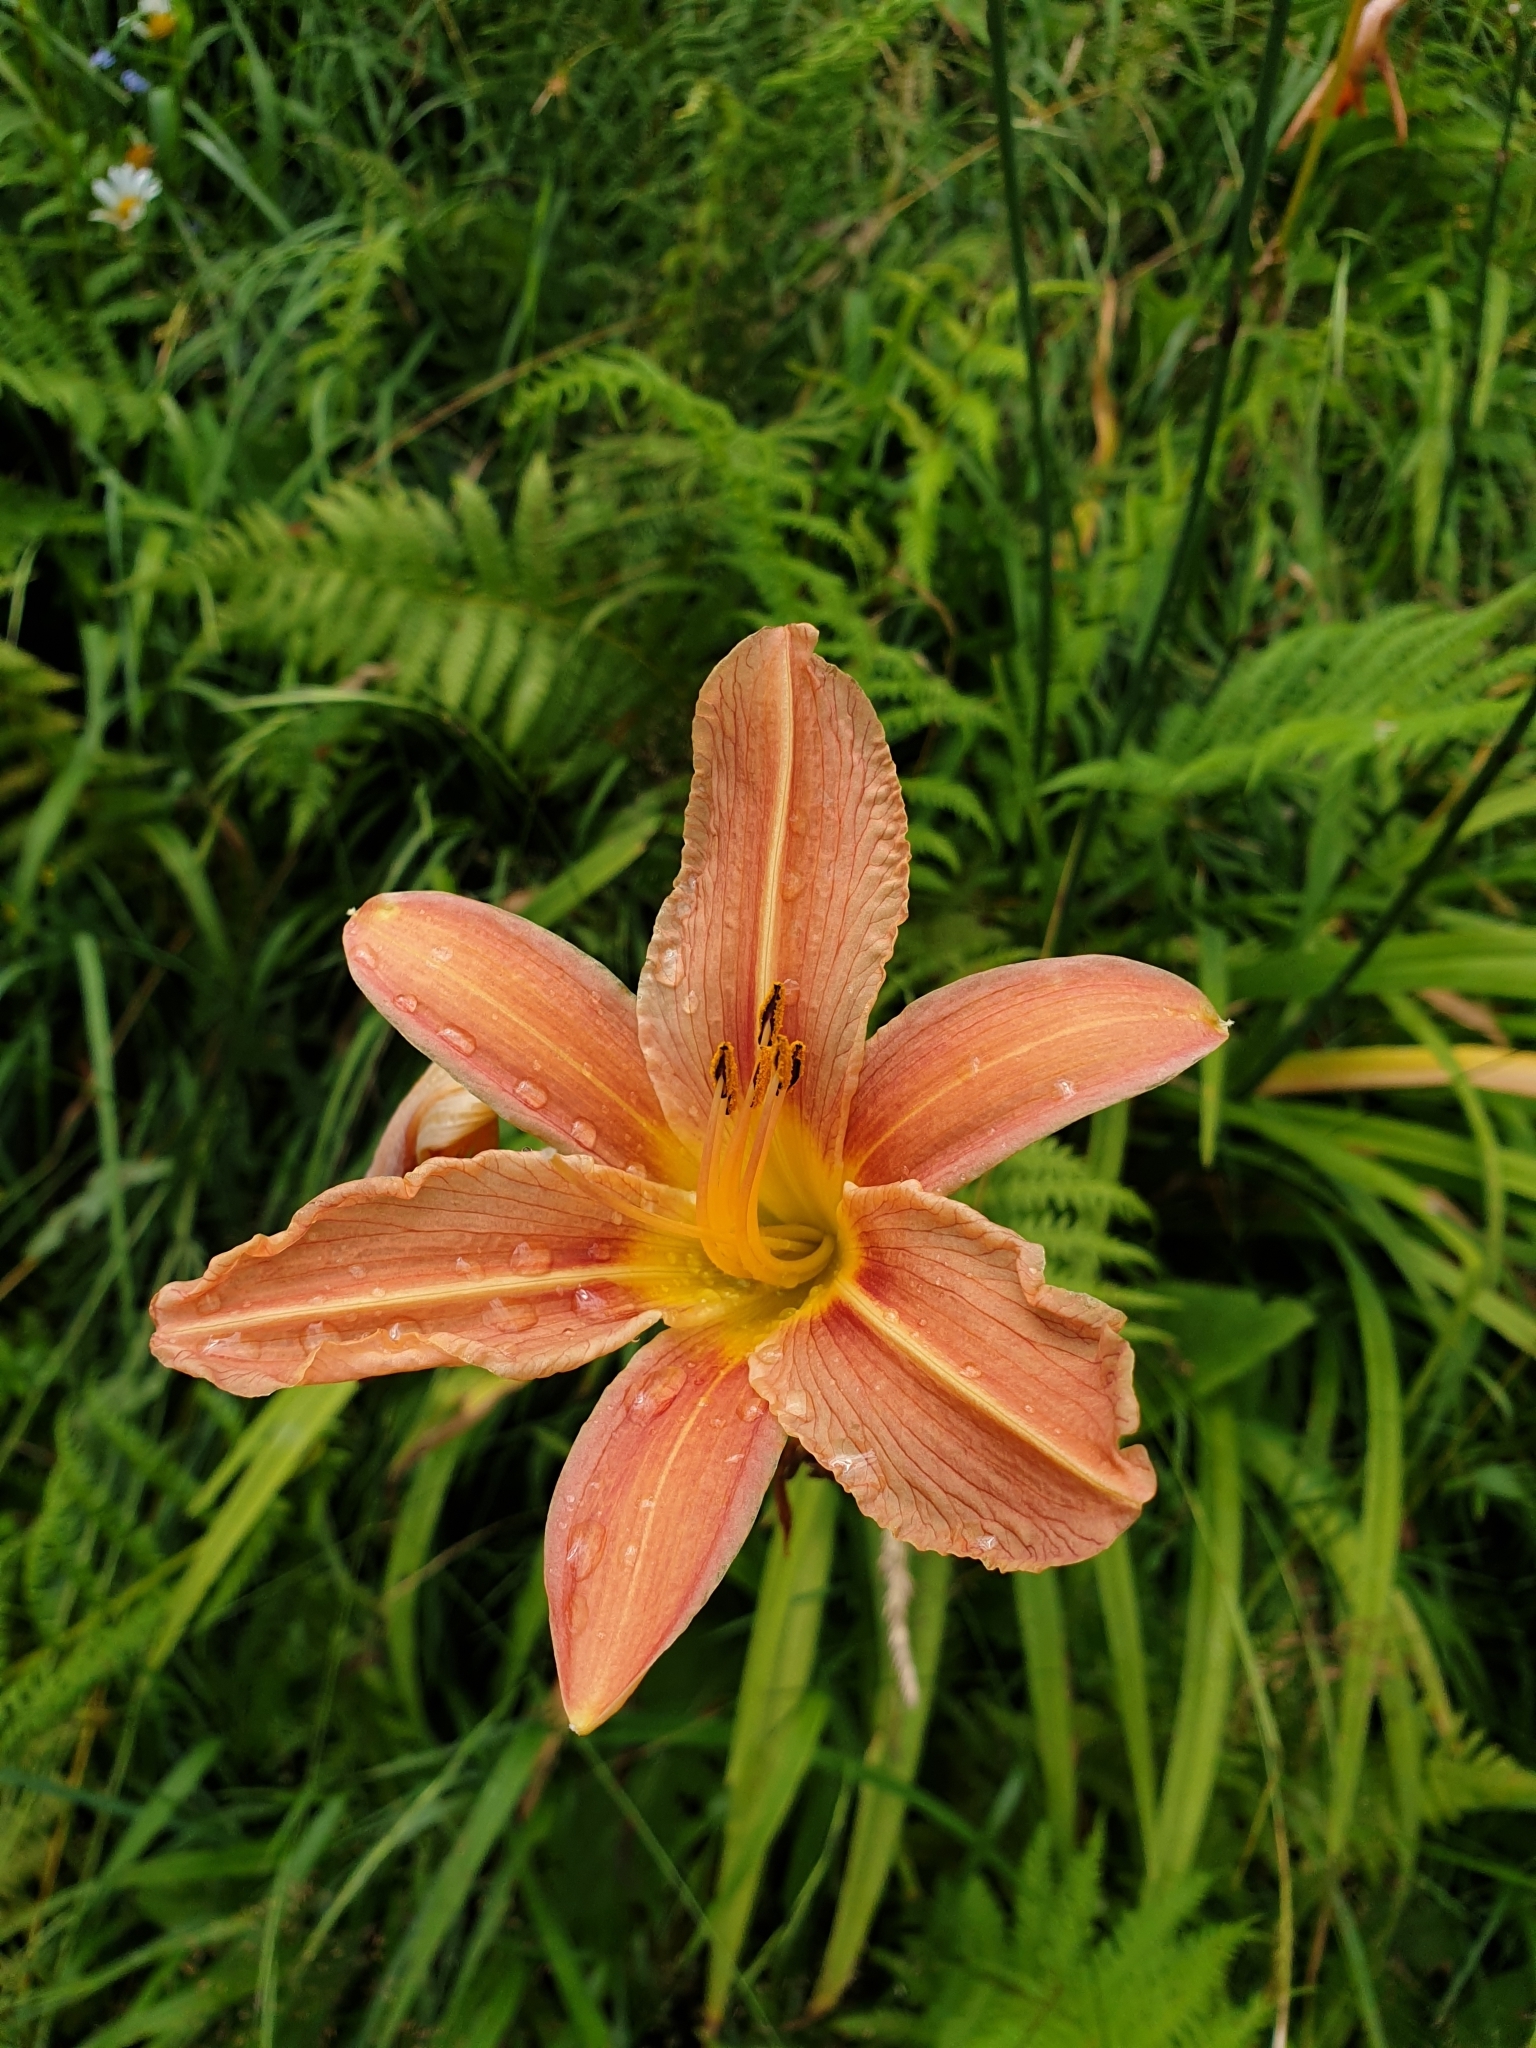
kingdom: Plantae
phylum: Tracheophyta
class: Liliopsida
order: Asparagales
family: Asphodelaceae
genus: Hemerocallis
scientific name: Hemerocallis fulva
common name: Orange day-lily
